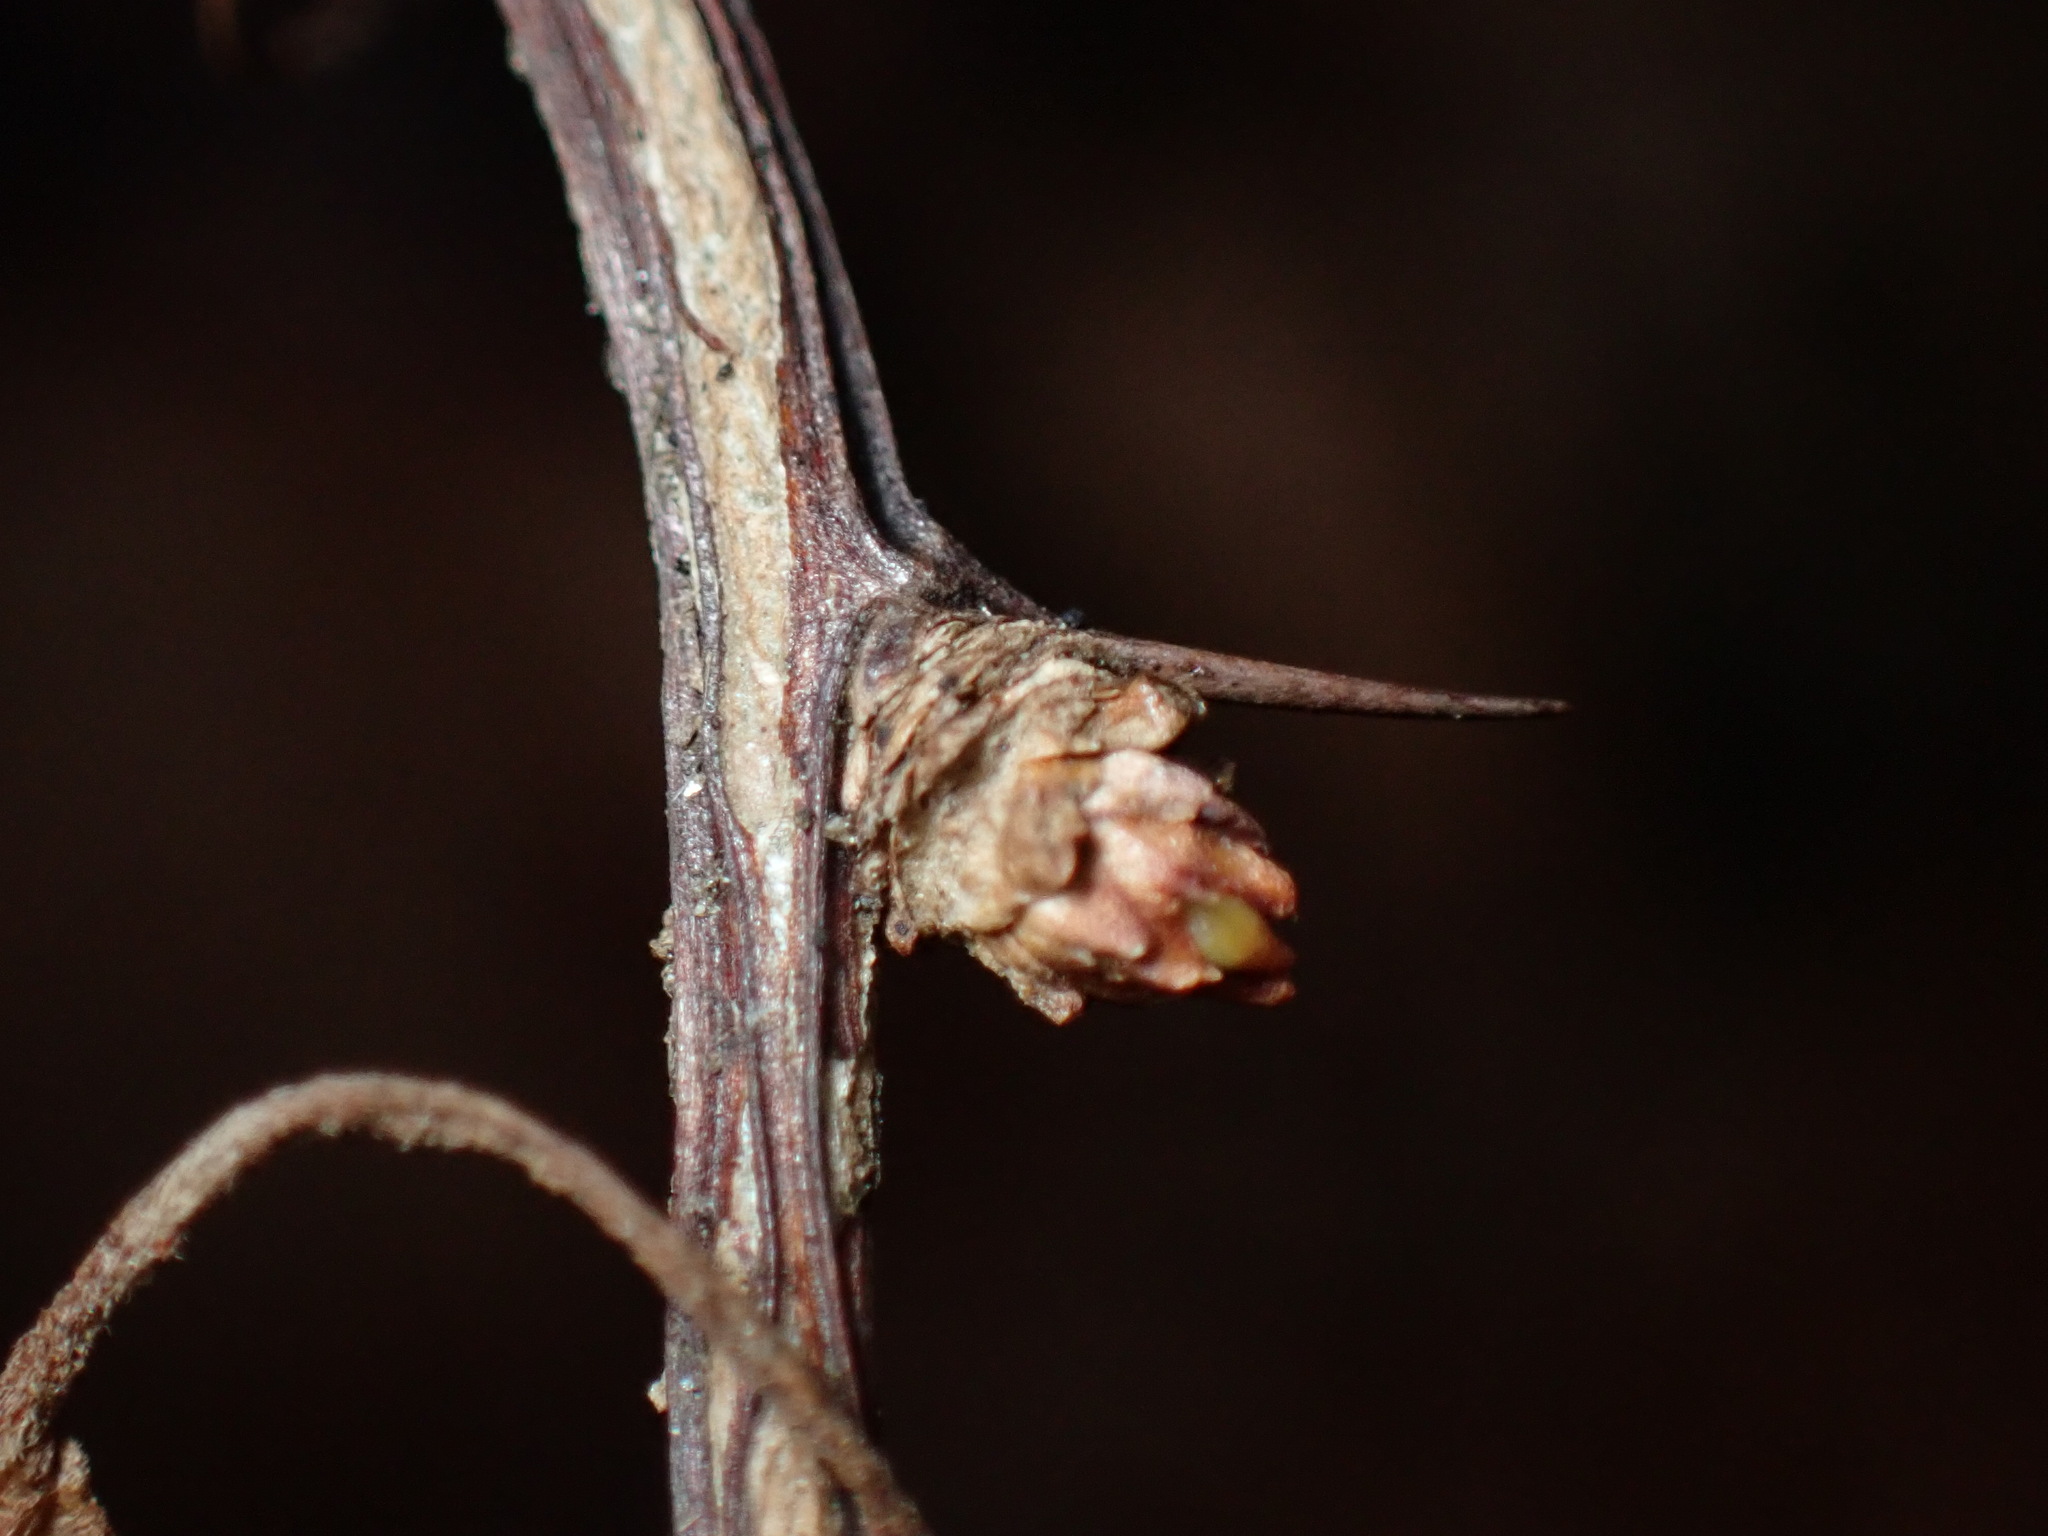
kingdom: Plantae
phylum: Tracheophyta
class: Magnoliopsida
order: Ranunculales
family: Berberidaceae
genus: Berberis
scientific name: Berberis thunbergii
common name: Japanese barberry
